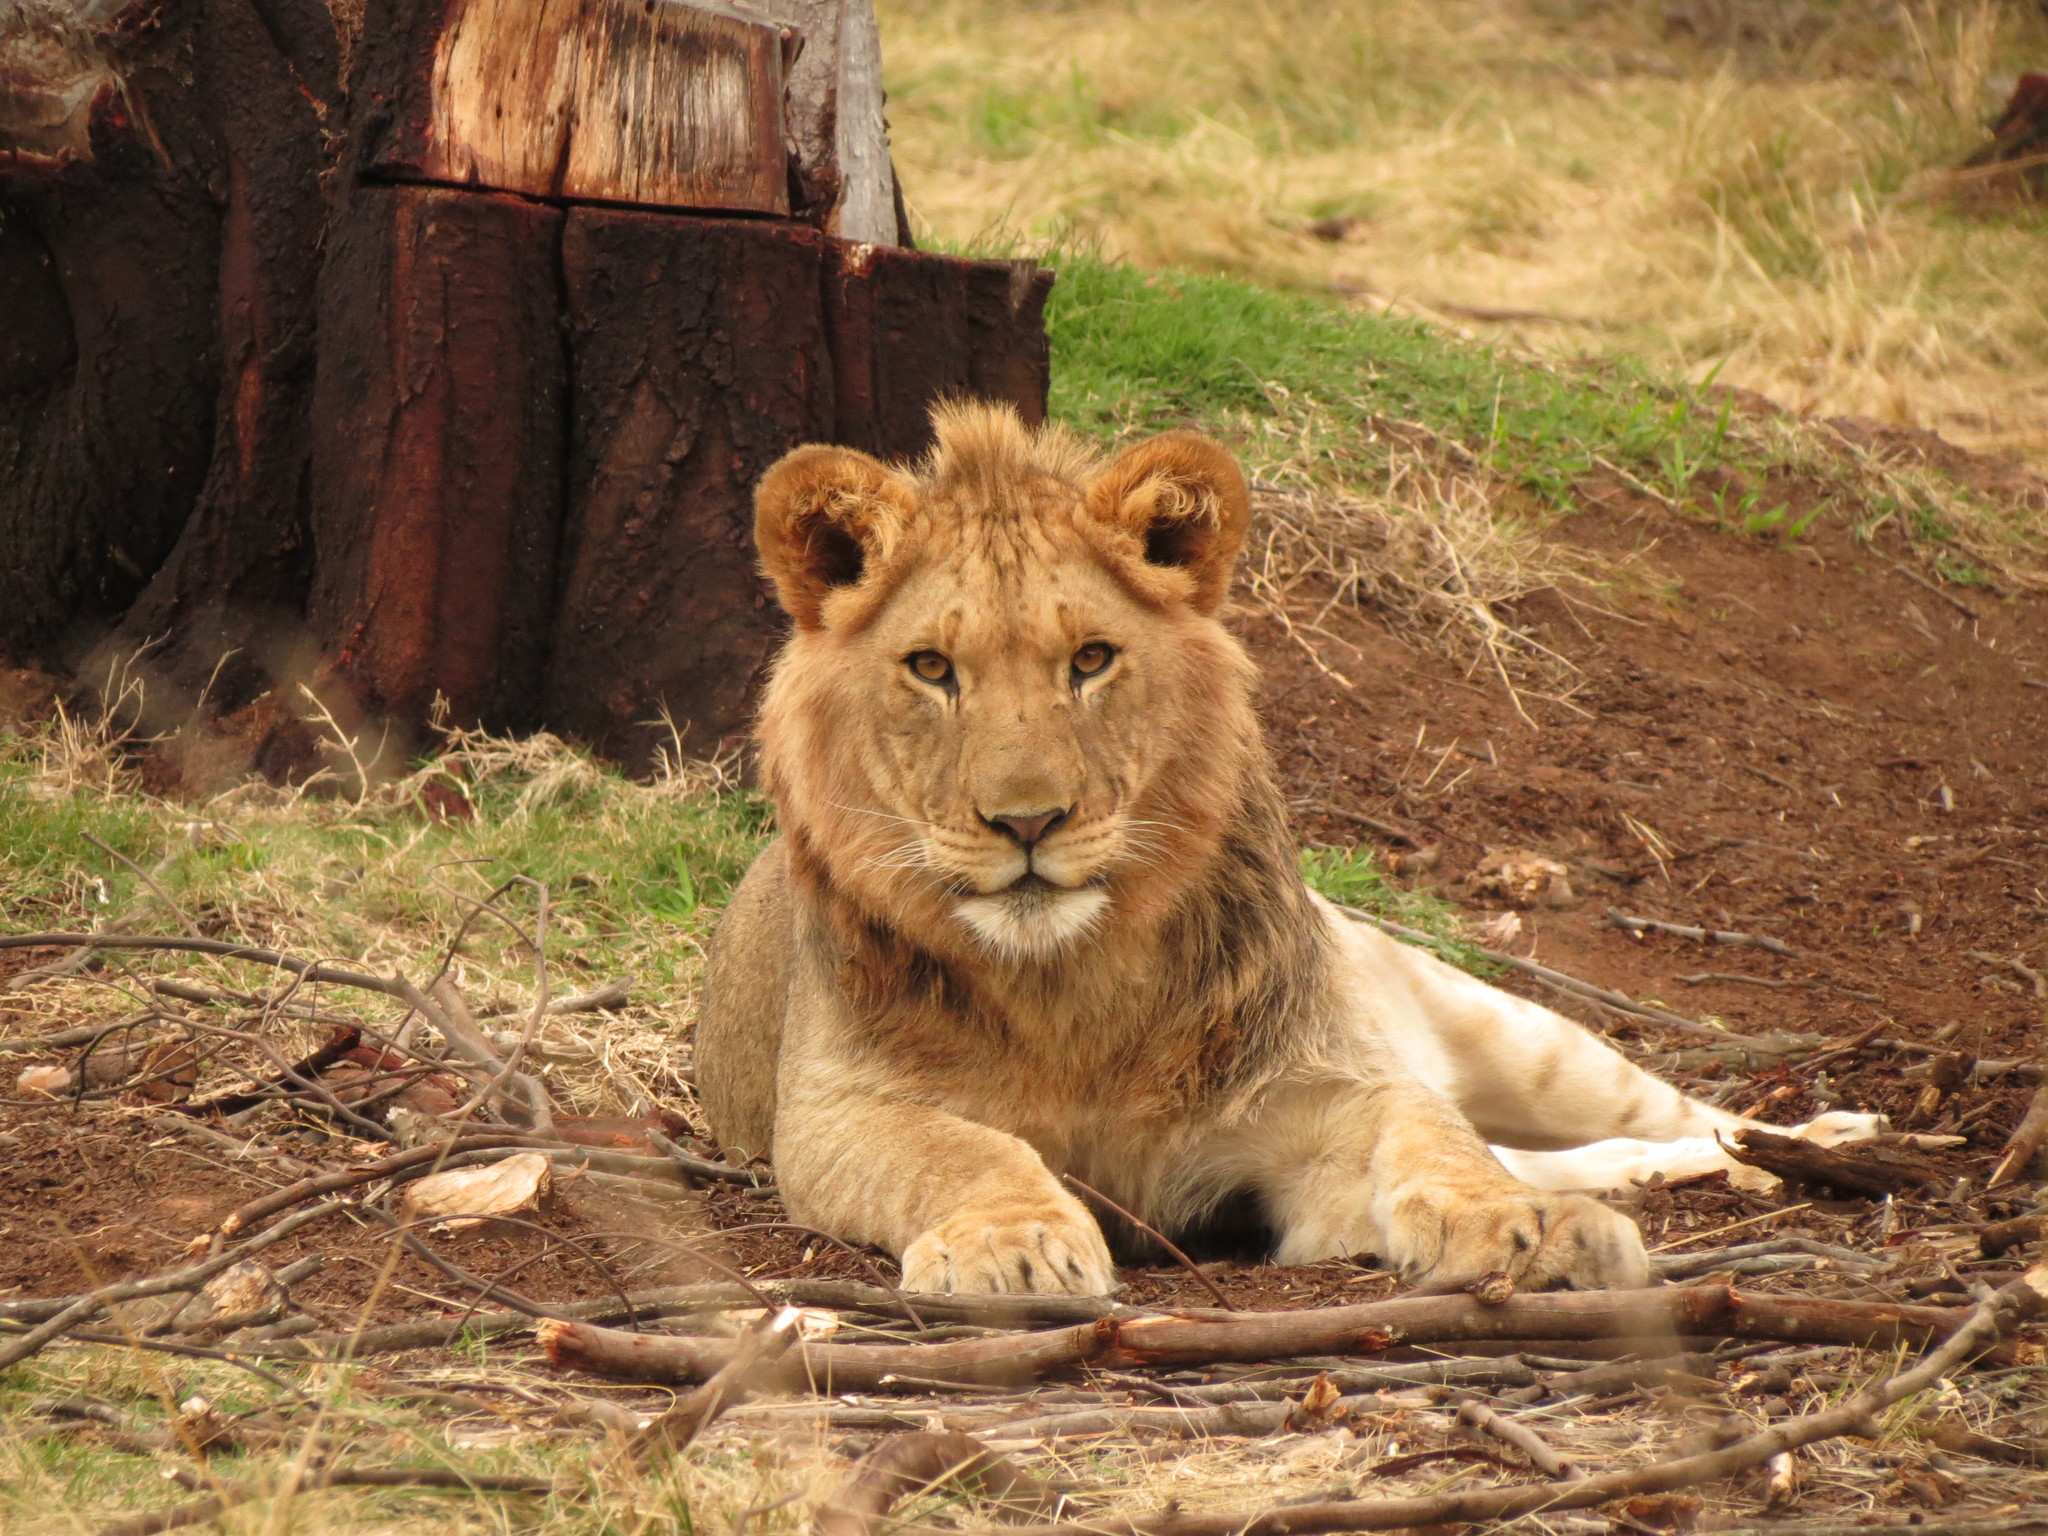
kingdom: Animalia
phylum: Chordata
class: Mammalia
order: Carnivora
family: Felidae
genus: Panthera
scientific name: Panthera leo
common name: Lion
